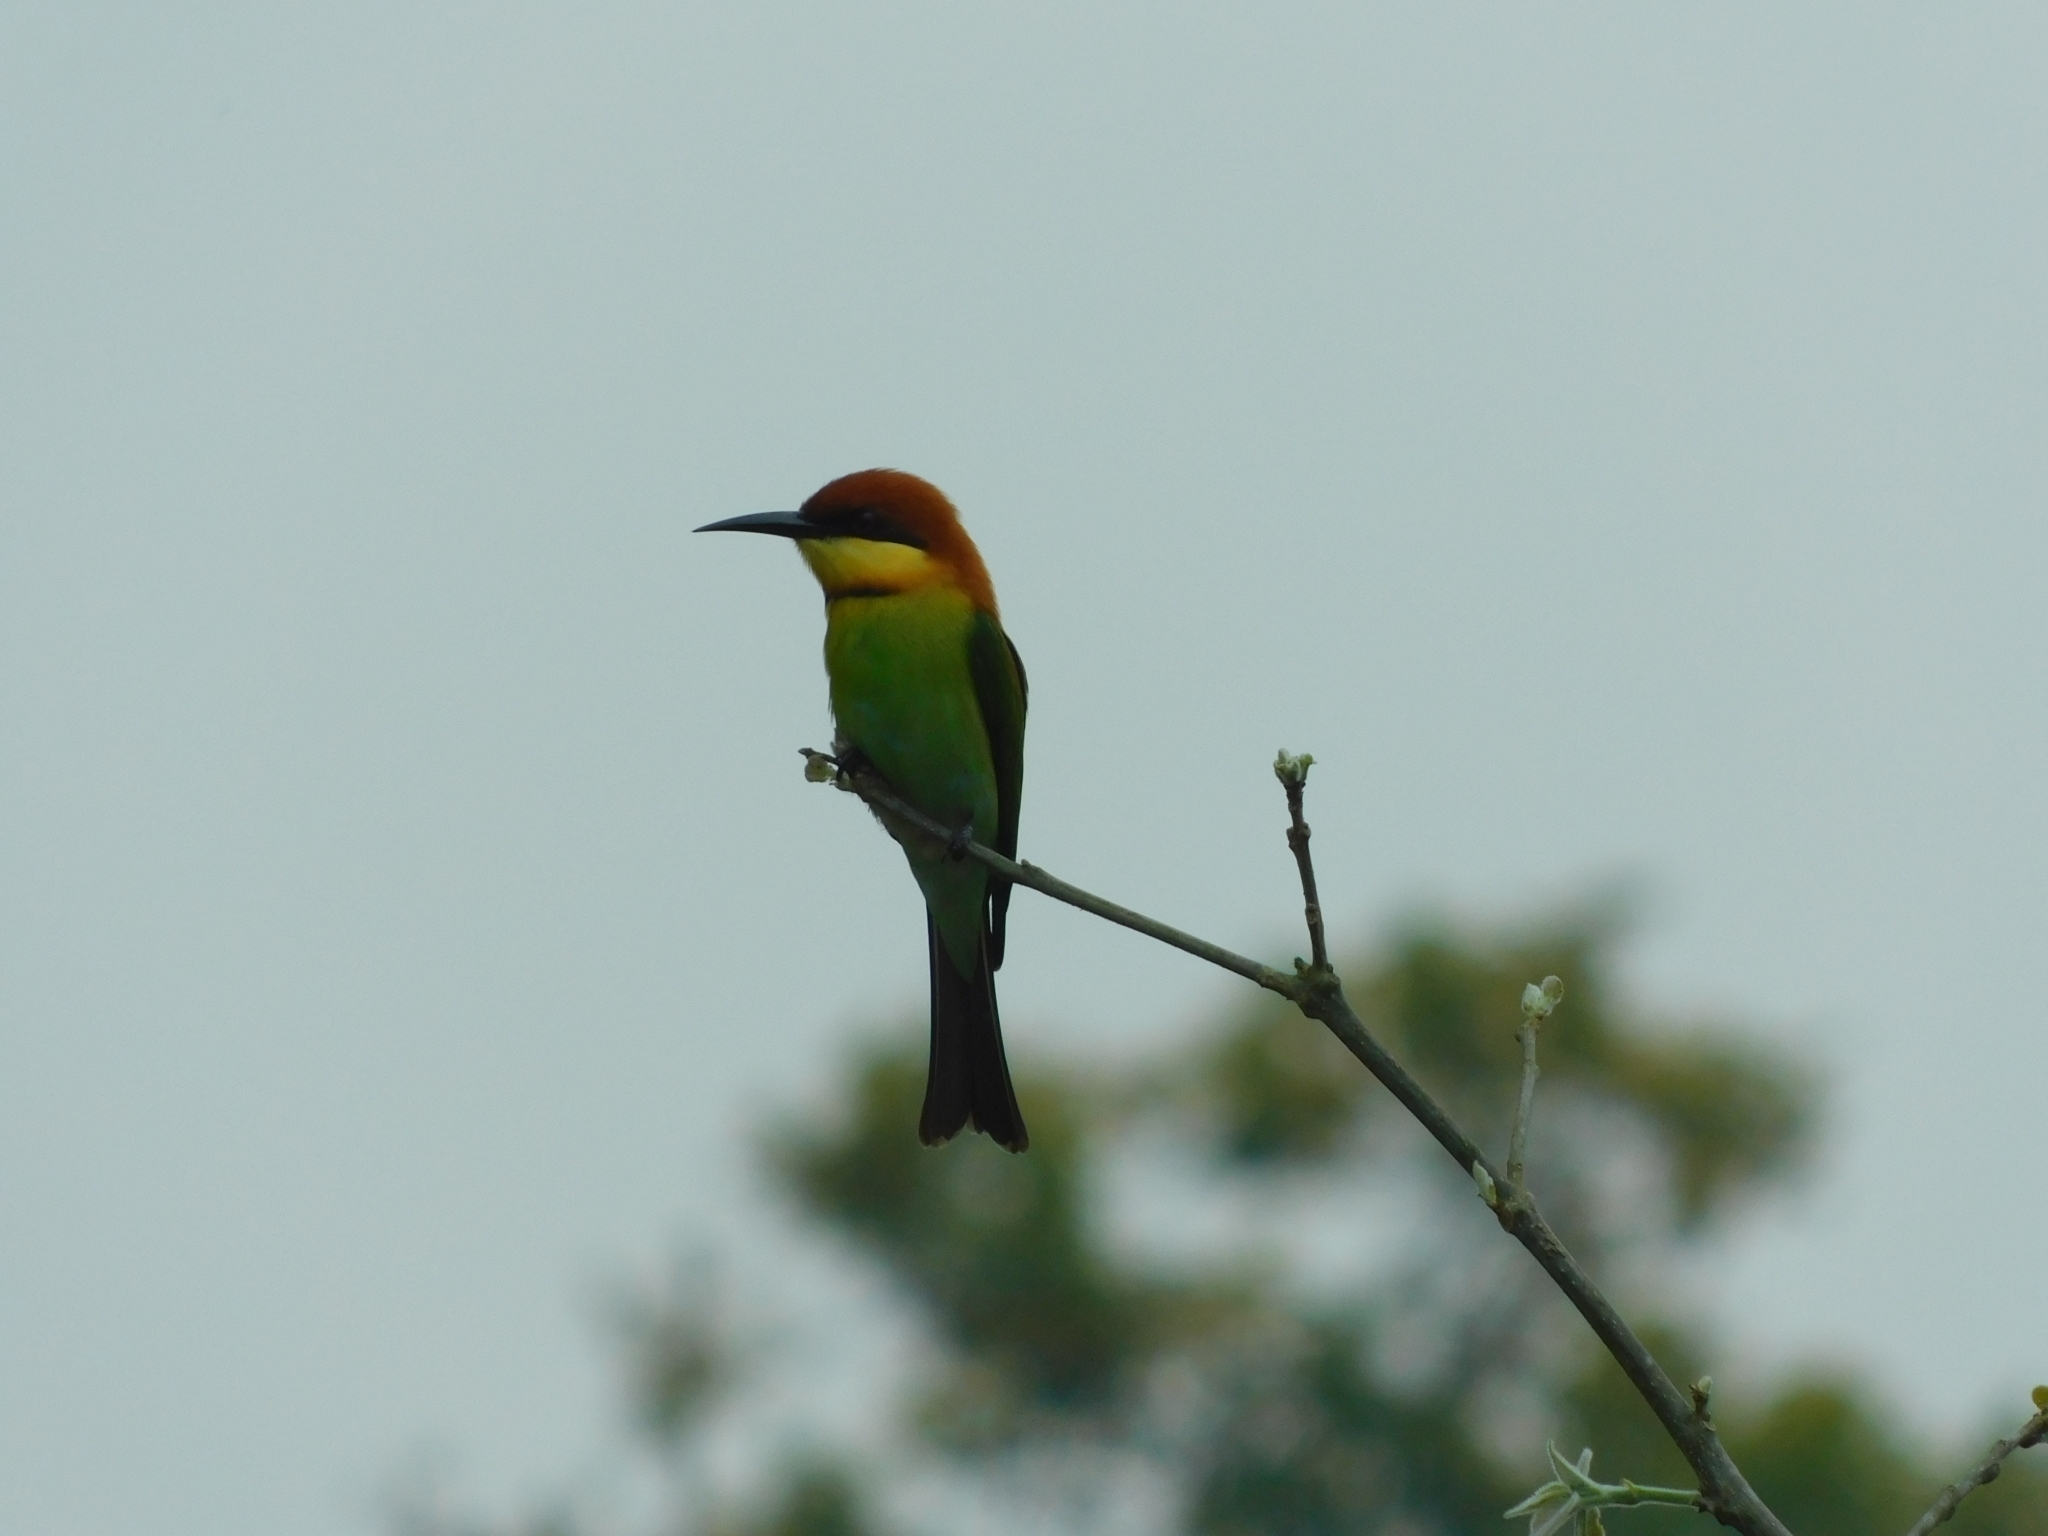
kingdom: Animalia
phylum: Chordata
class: Aves
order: Coraciiformes
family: Meropidae
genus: Merops
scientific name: Merops leschenaulti
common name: Chestnut-headed bee-eater
